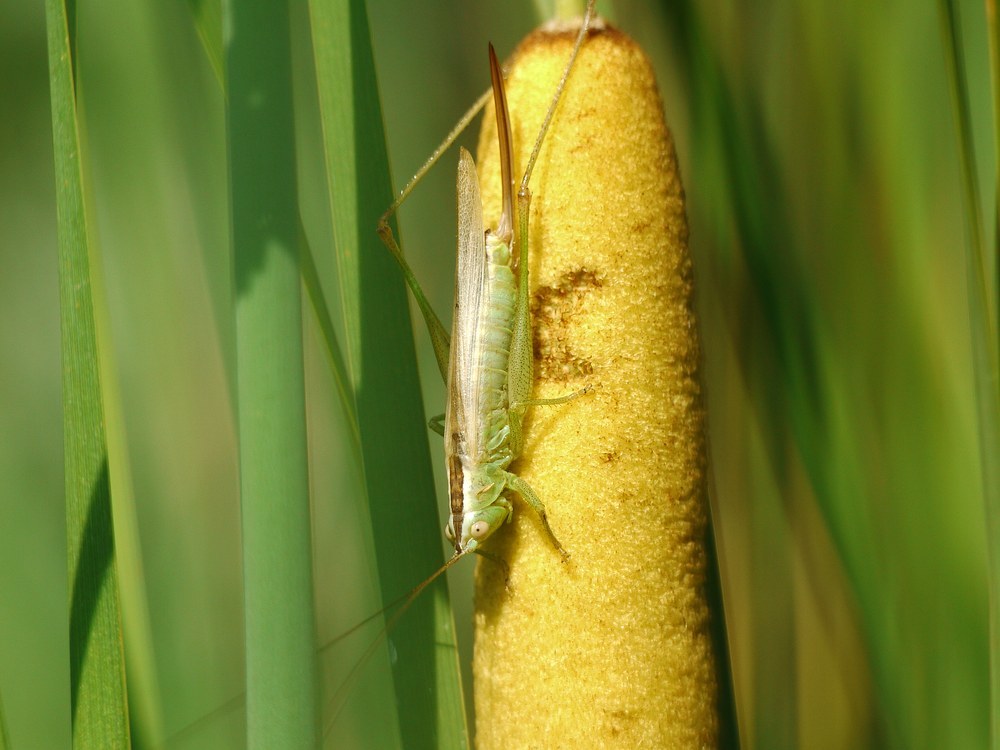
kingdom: Animalia
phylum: Arthropoda
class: Insecta
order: Orthoptera
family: Tettigoniidae
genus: Conocephalus
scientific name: Conocephalus fuscus
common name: Long-winged conehead
